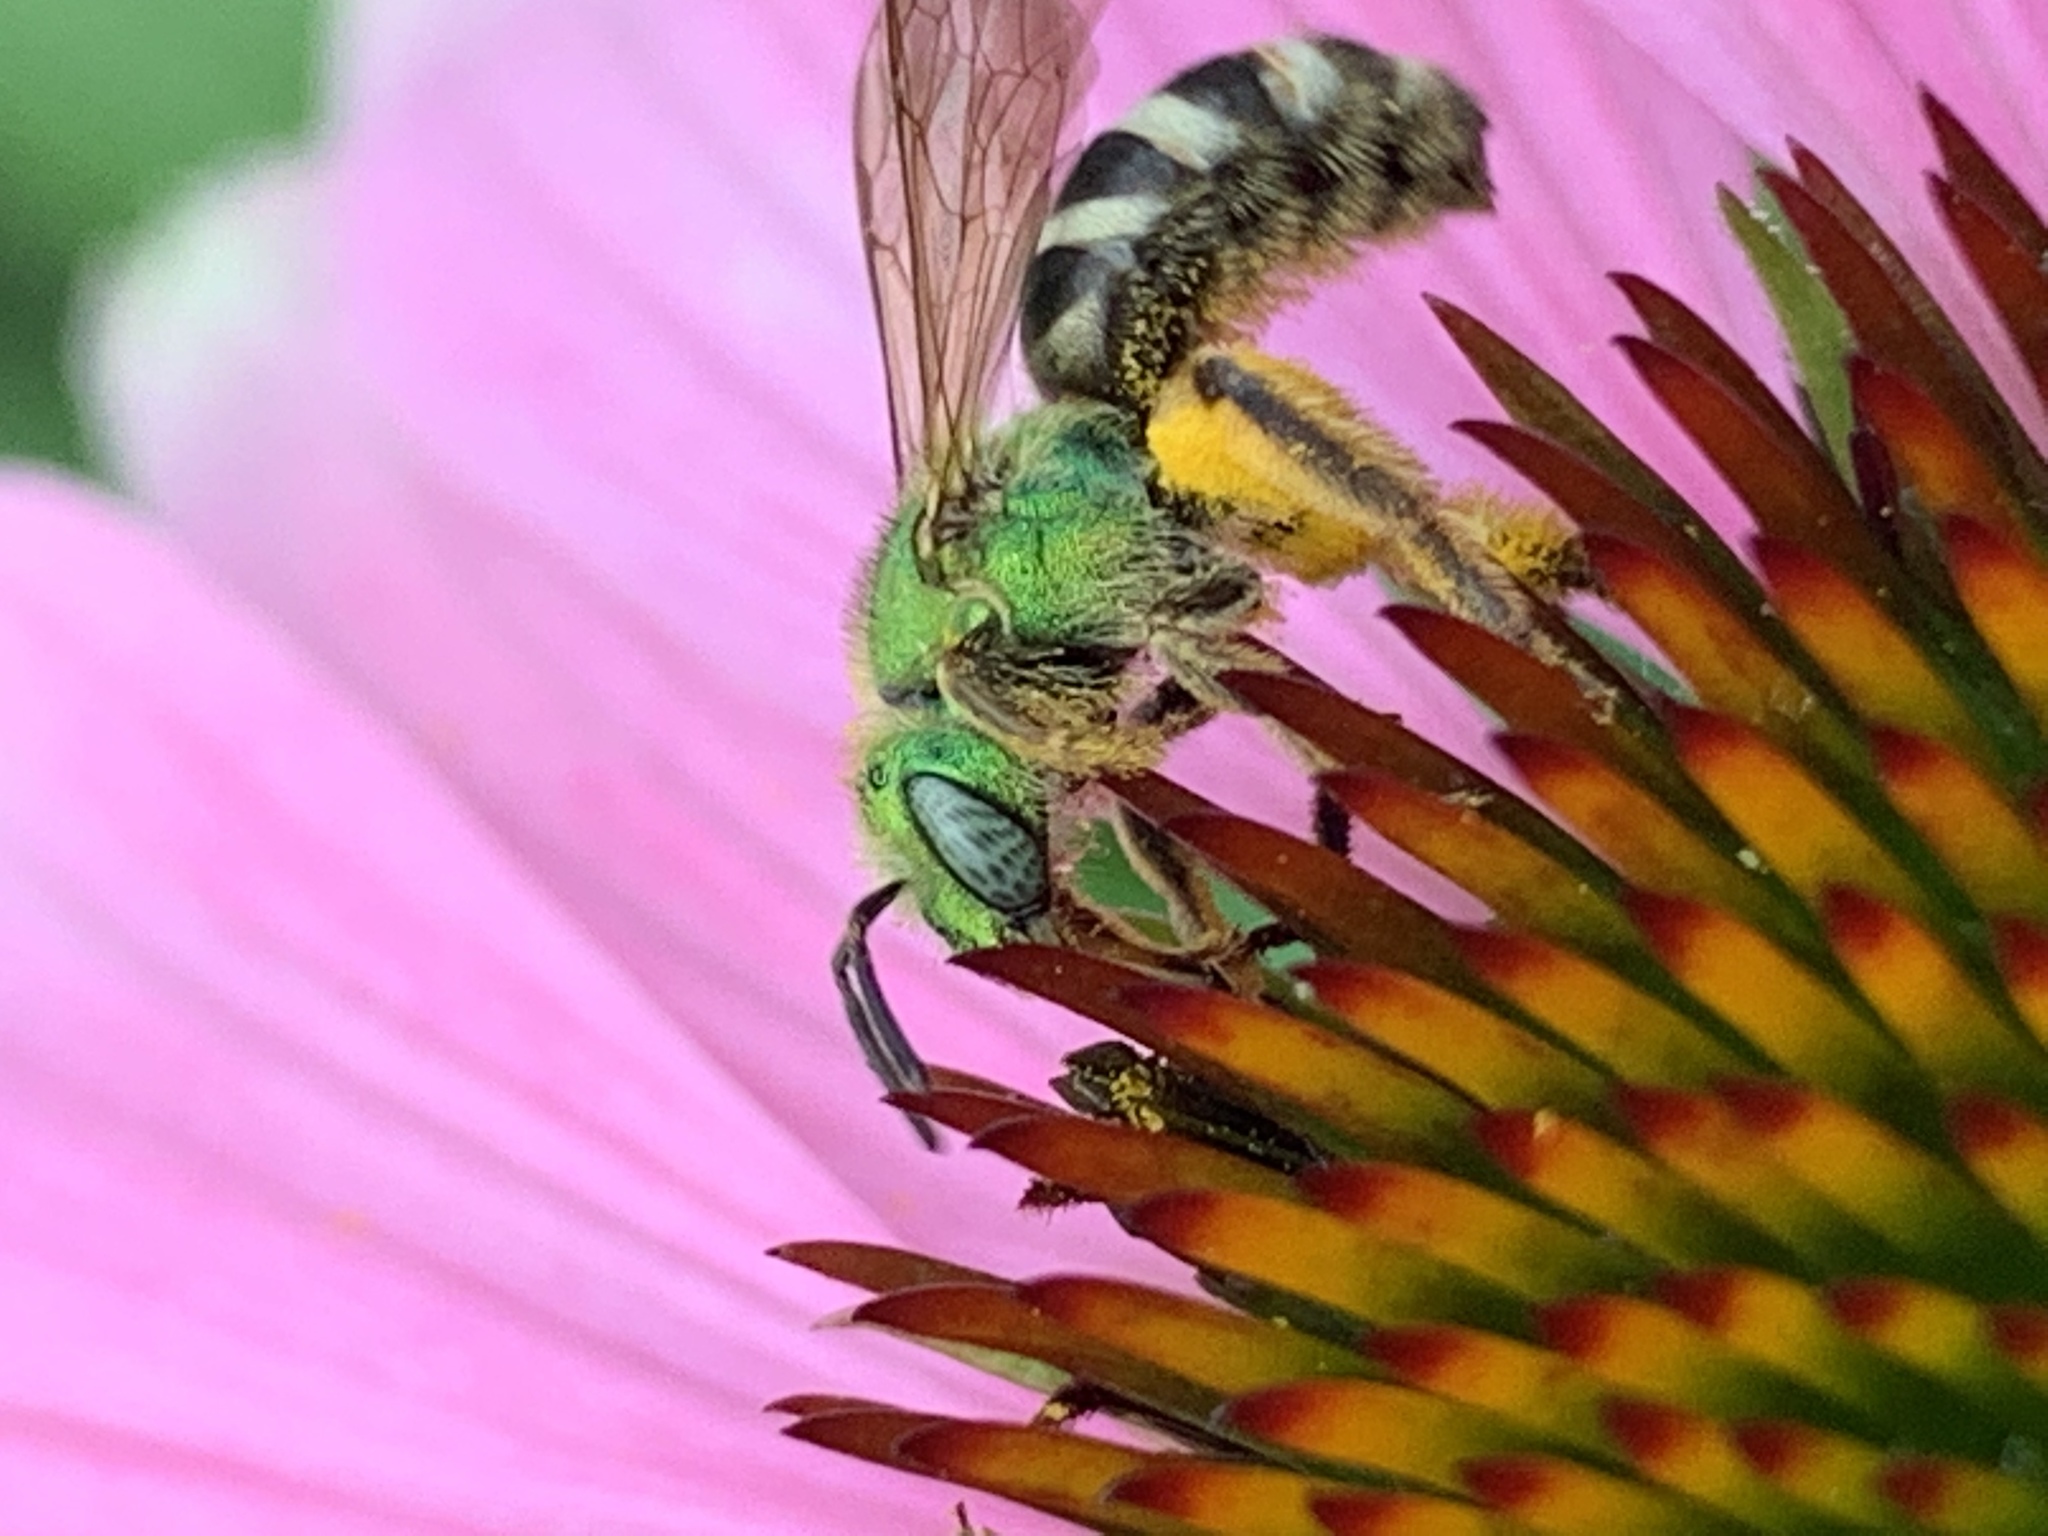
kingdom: Animalia
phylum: Arthropoda
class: Insecta
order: Hymenoptera
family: Halictidae
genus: Agapostemon
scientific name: Agapostemon virescens
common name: Bicolored striped sweat bee
